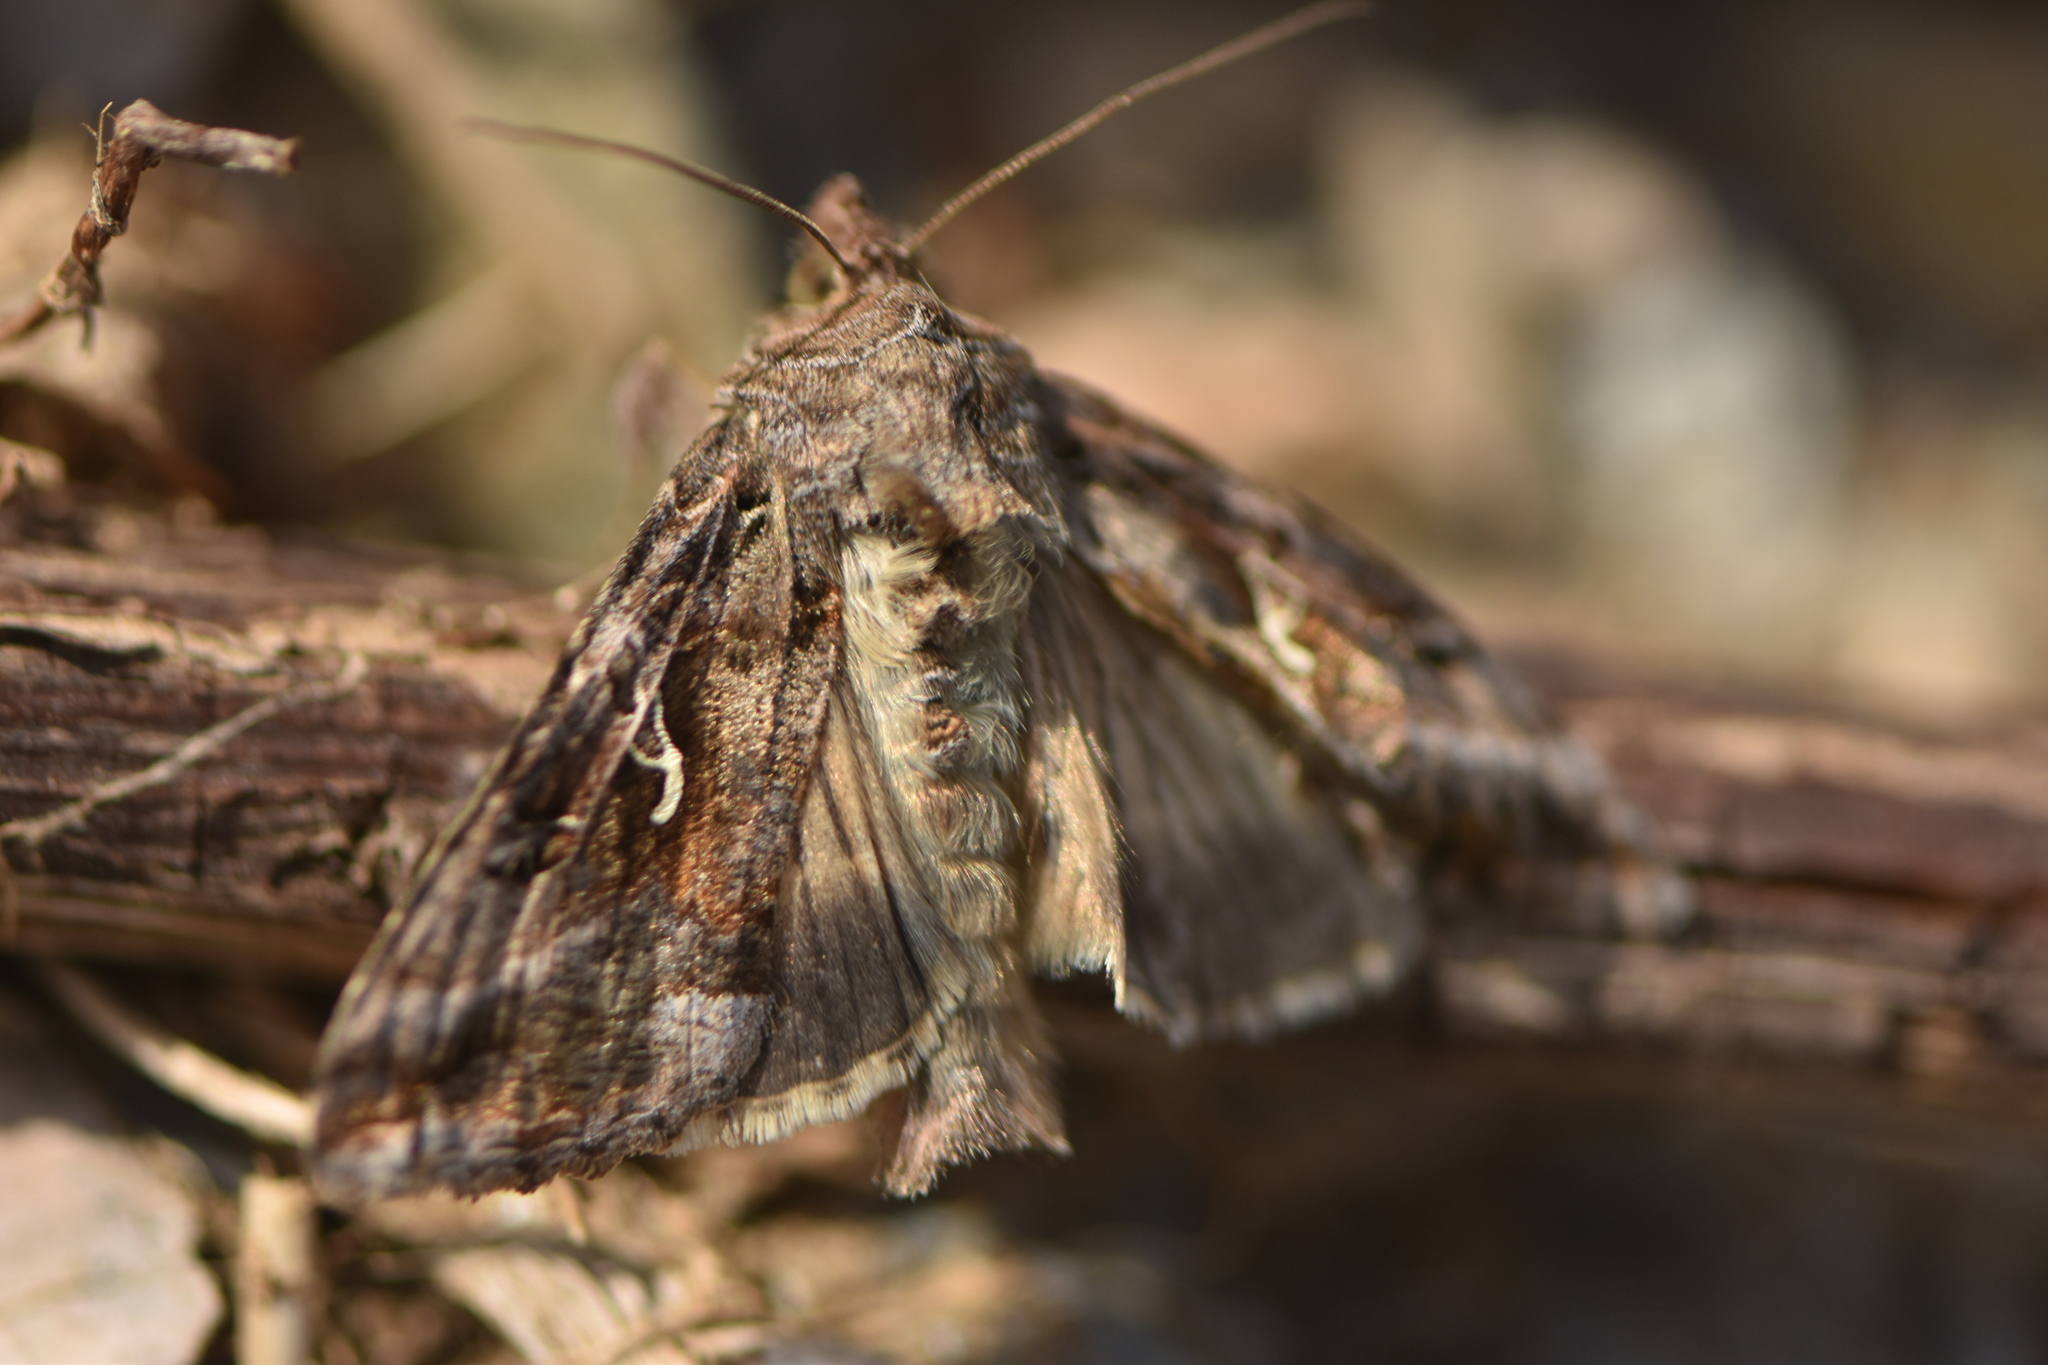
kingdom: Animalia
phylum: Arthropoda
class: Insecta
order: Lepidoptera
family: Noctuidae
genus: Autographa
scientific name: Autographa gamma
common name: Silver y
